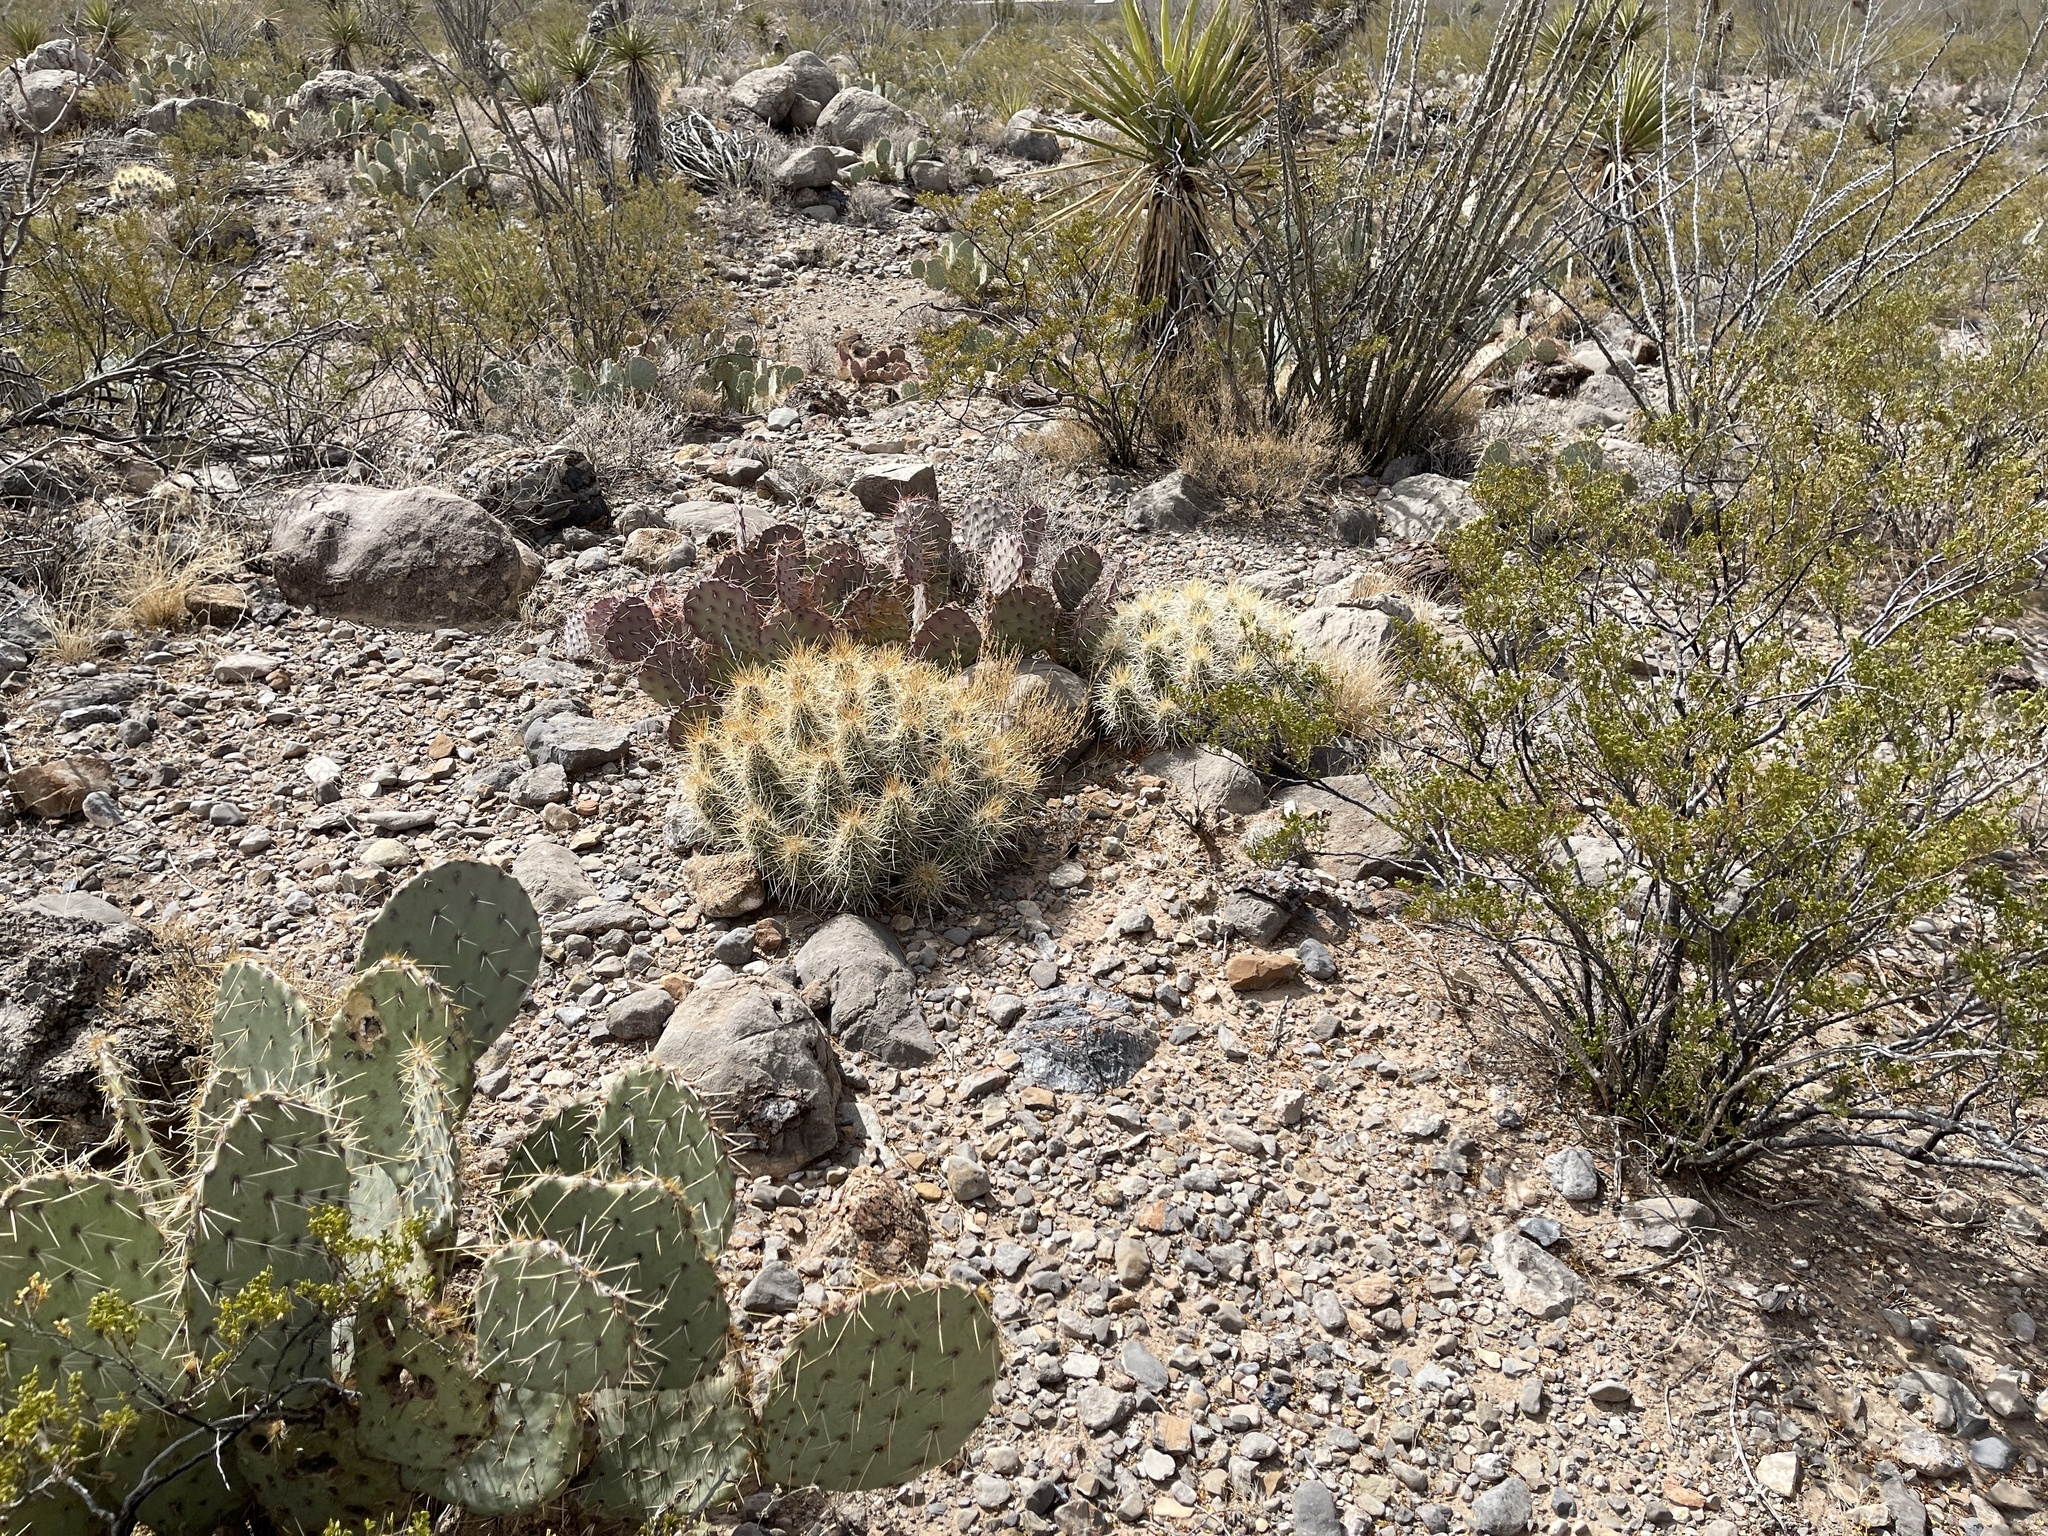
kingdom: Plantae
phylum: Tracheophyta
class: Magnoliopsida
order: Caryophyllales
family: Cactaceae
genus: Echinocereus
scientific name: Echinocereus stramineus
